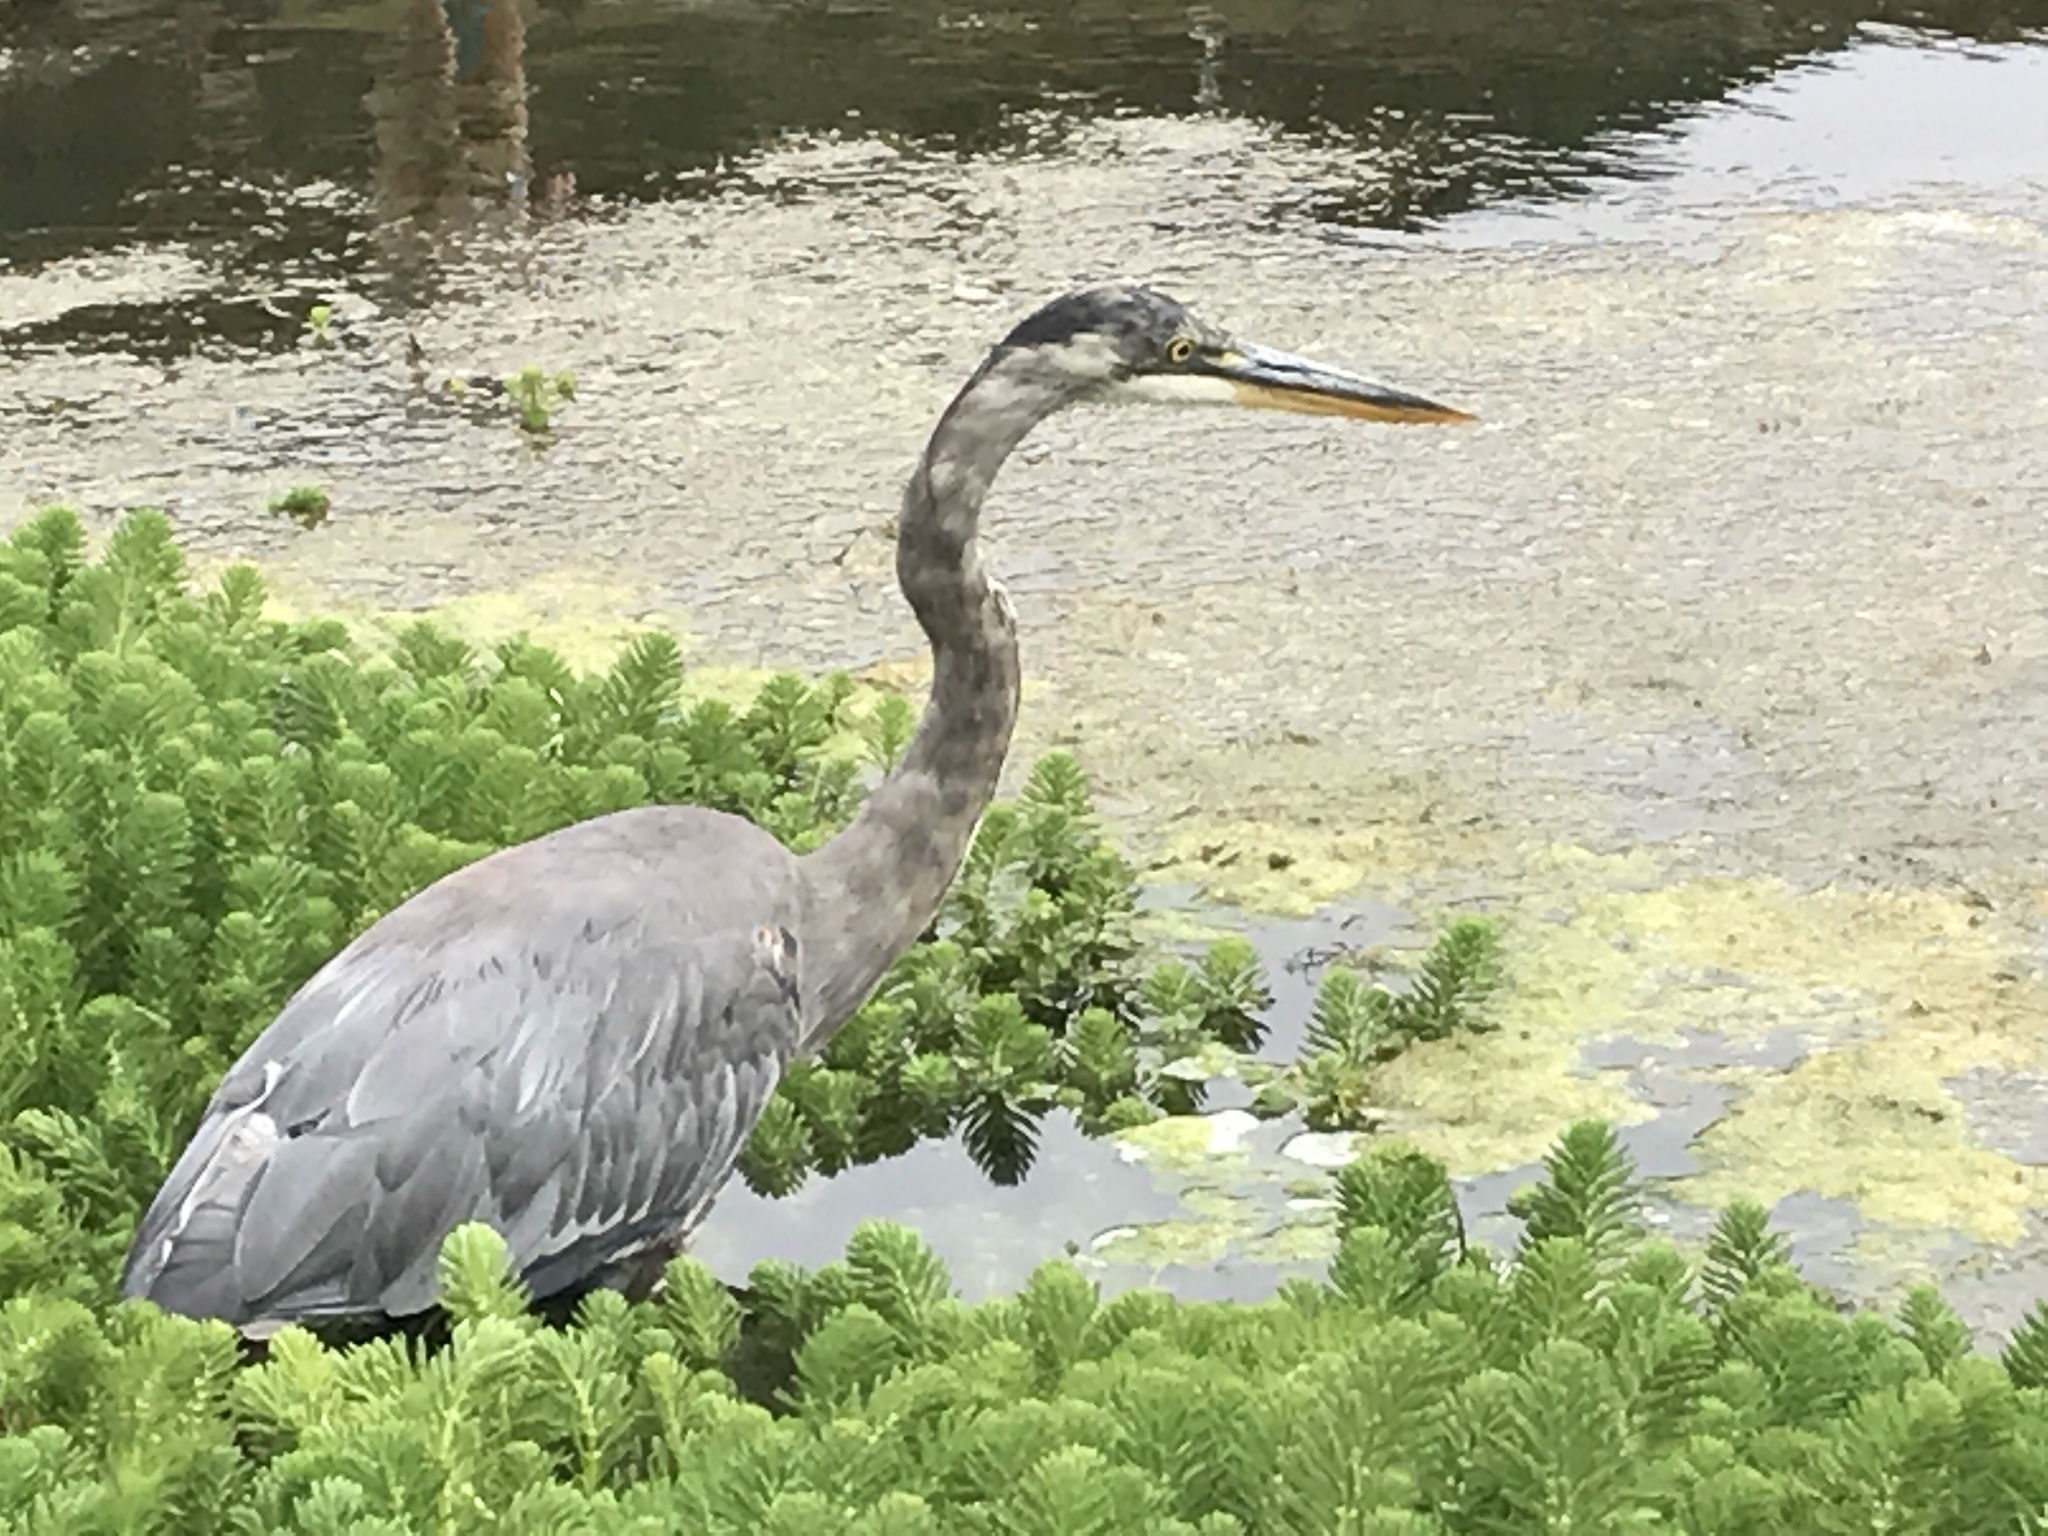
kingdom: Animalia
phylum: Chordata
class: Aves
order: Pelecaniformes
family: Ardeidae
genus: Ardea
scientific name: Ardea herodias
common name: Great blue heron
